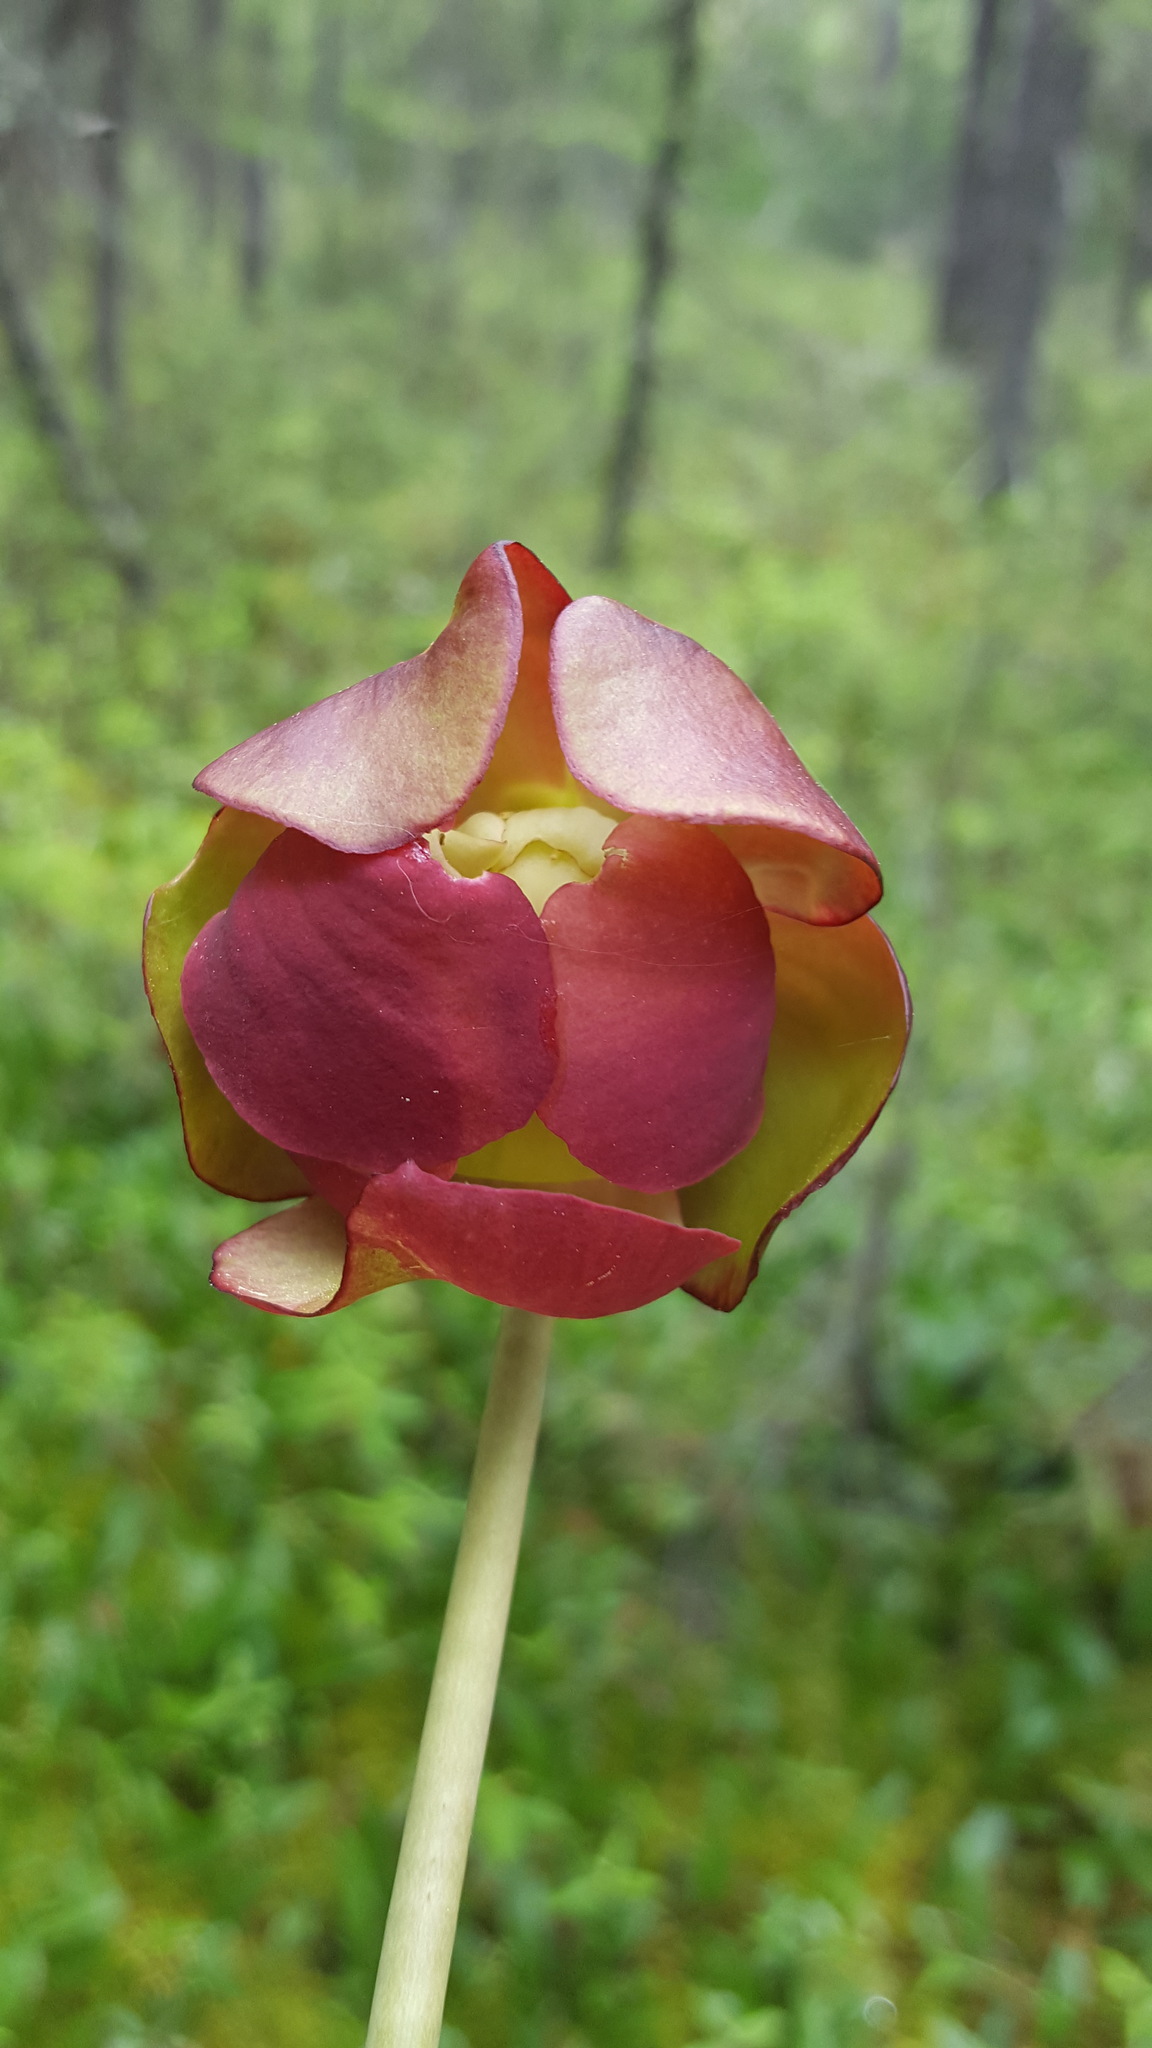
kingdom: Plantae
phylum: Tracheophyta
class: Magnoliopsida
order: Ericales
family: Sarraceniaceae
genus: Sarracenia
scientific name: Sarracenia purpurea
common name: Pitcherplant
